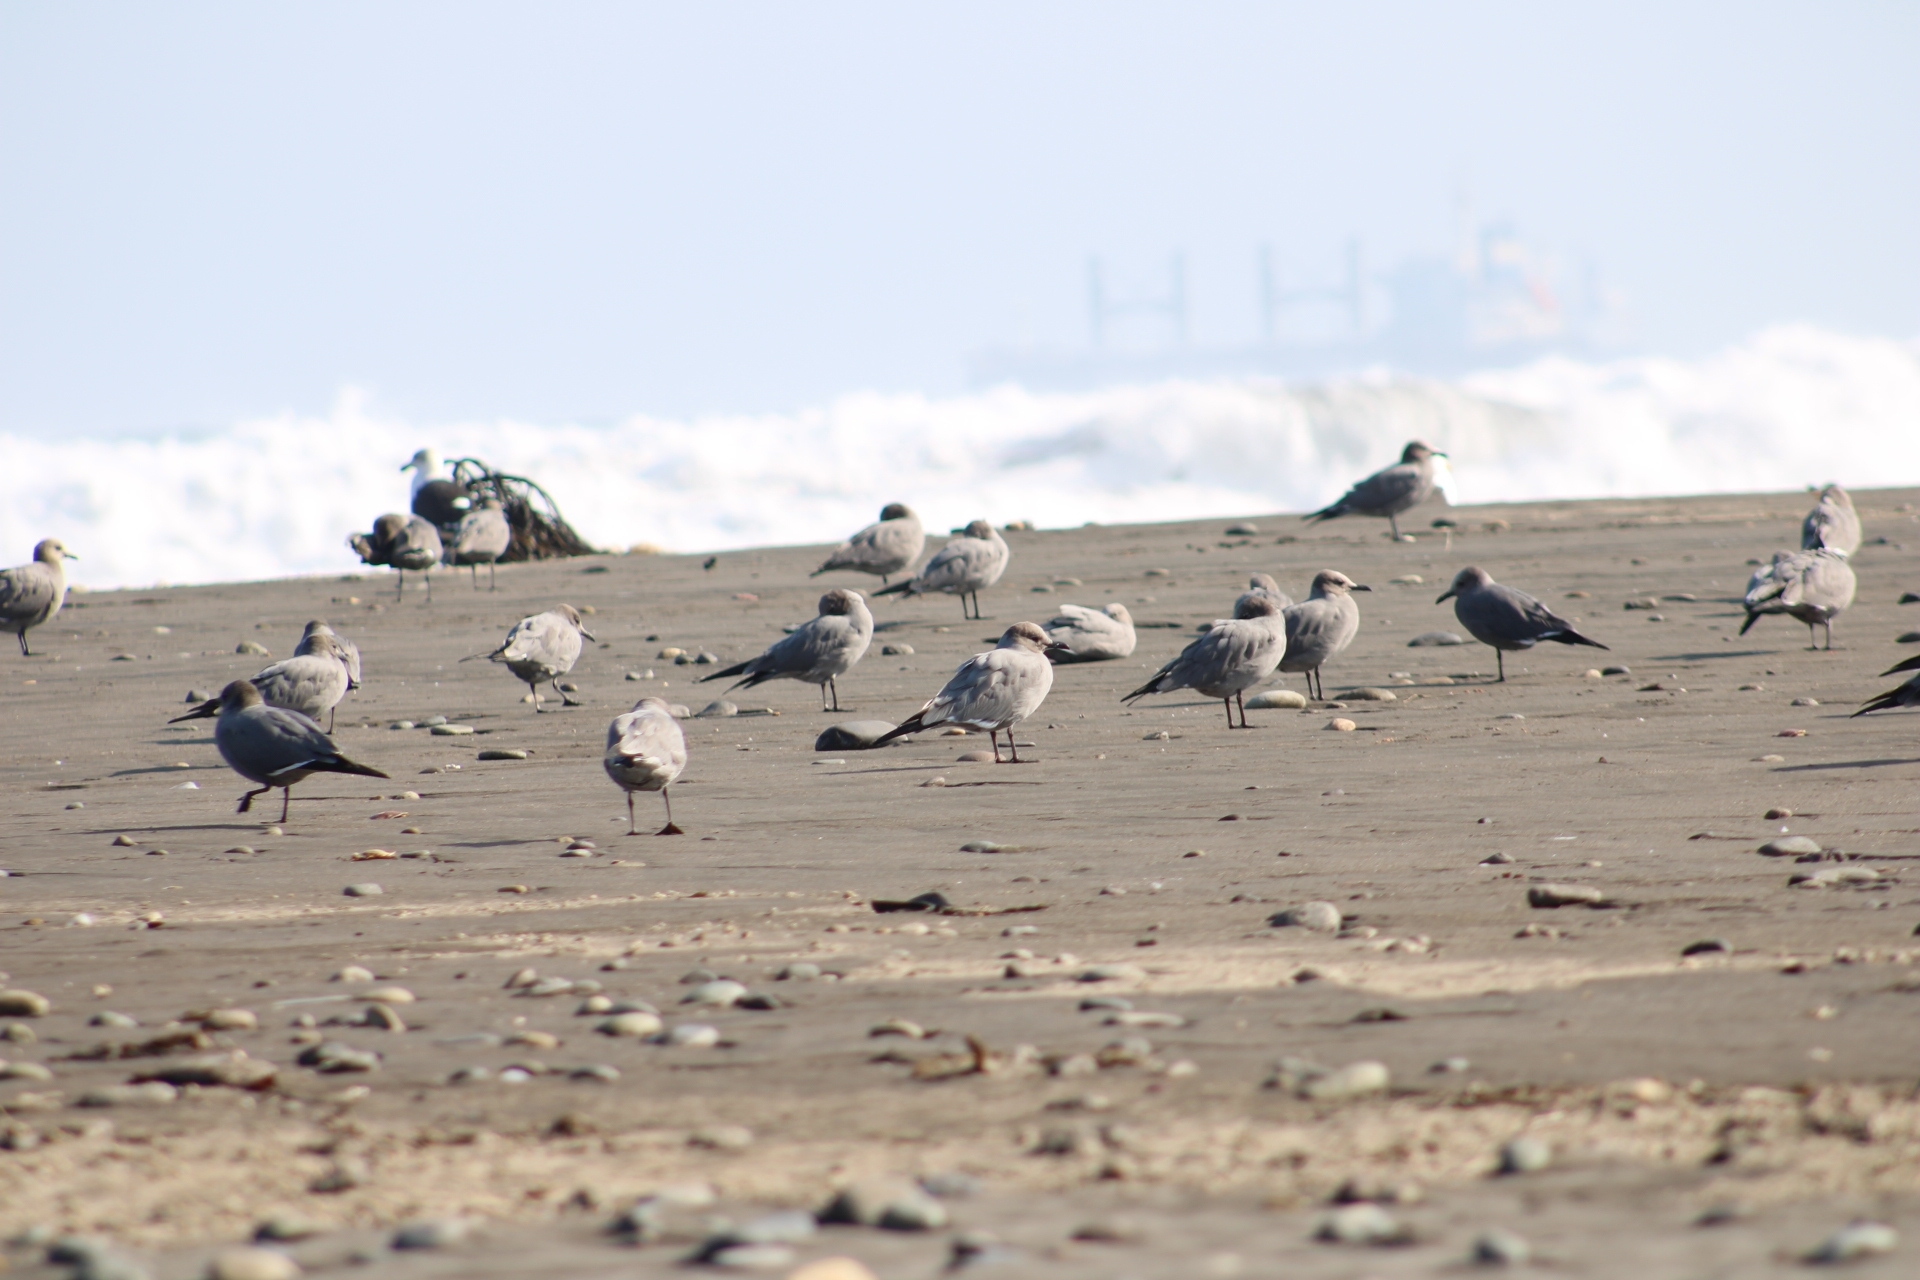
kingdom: Animalia
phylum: Chordata
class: Aves
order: Charadriiformes
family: Laridae
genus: Leucophaeus
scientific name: Leucophaeus modestus
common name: Gray gull
